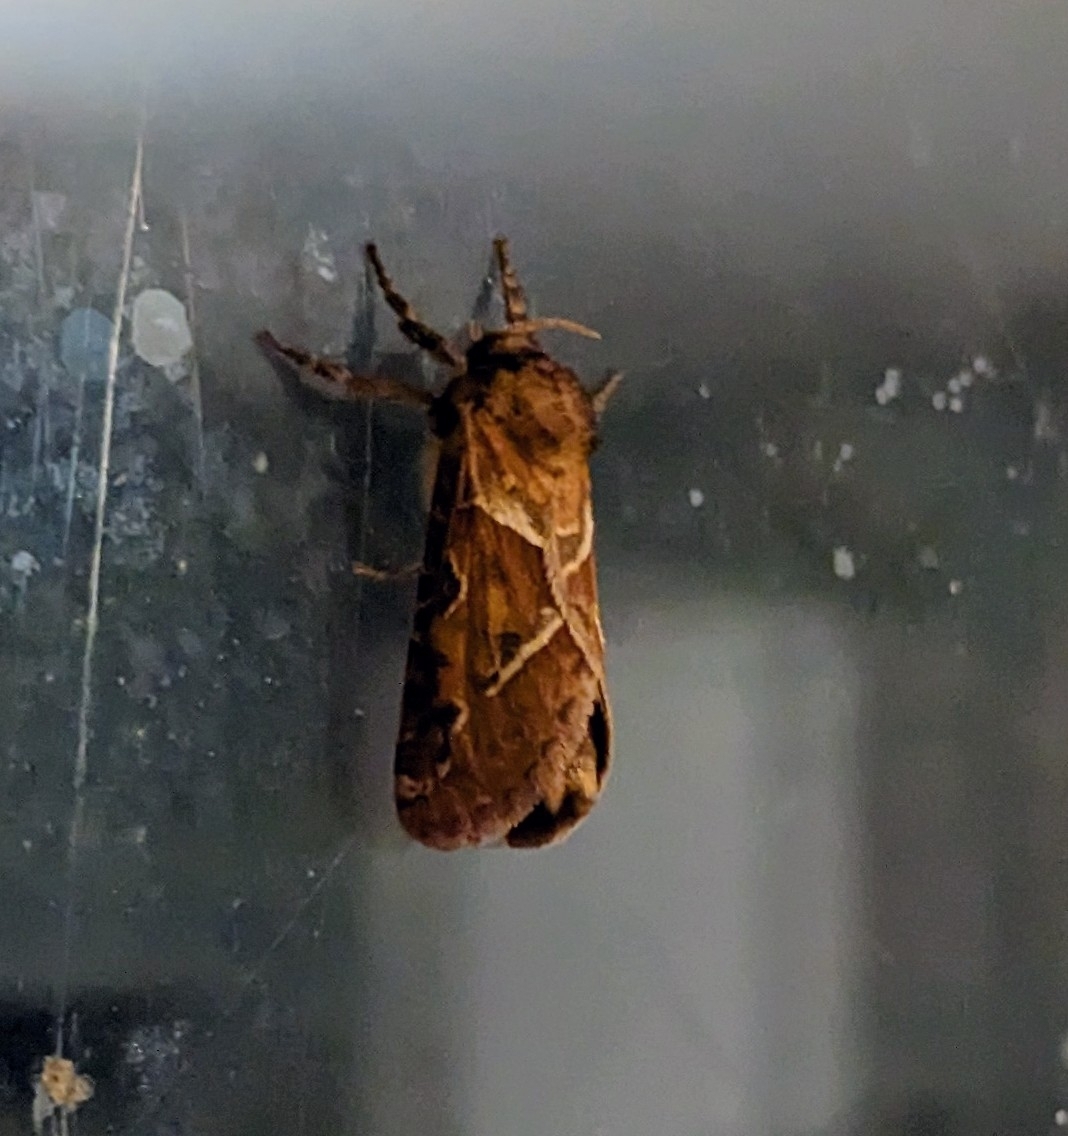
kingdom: Animalia
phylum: Arthropoda
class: Insecta
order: Lepidoptera
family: Hepialidae
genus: Triodia
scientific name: Triodia sylvina
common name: Orange swift
